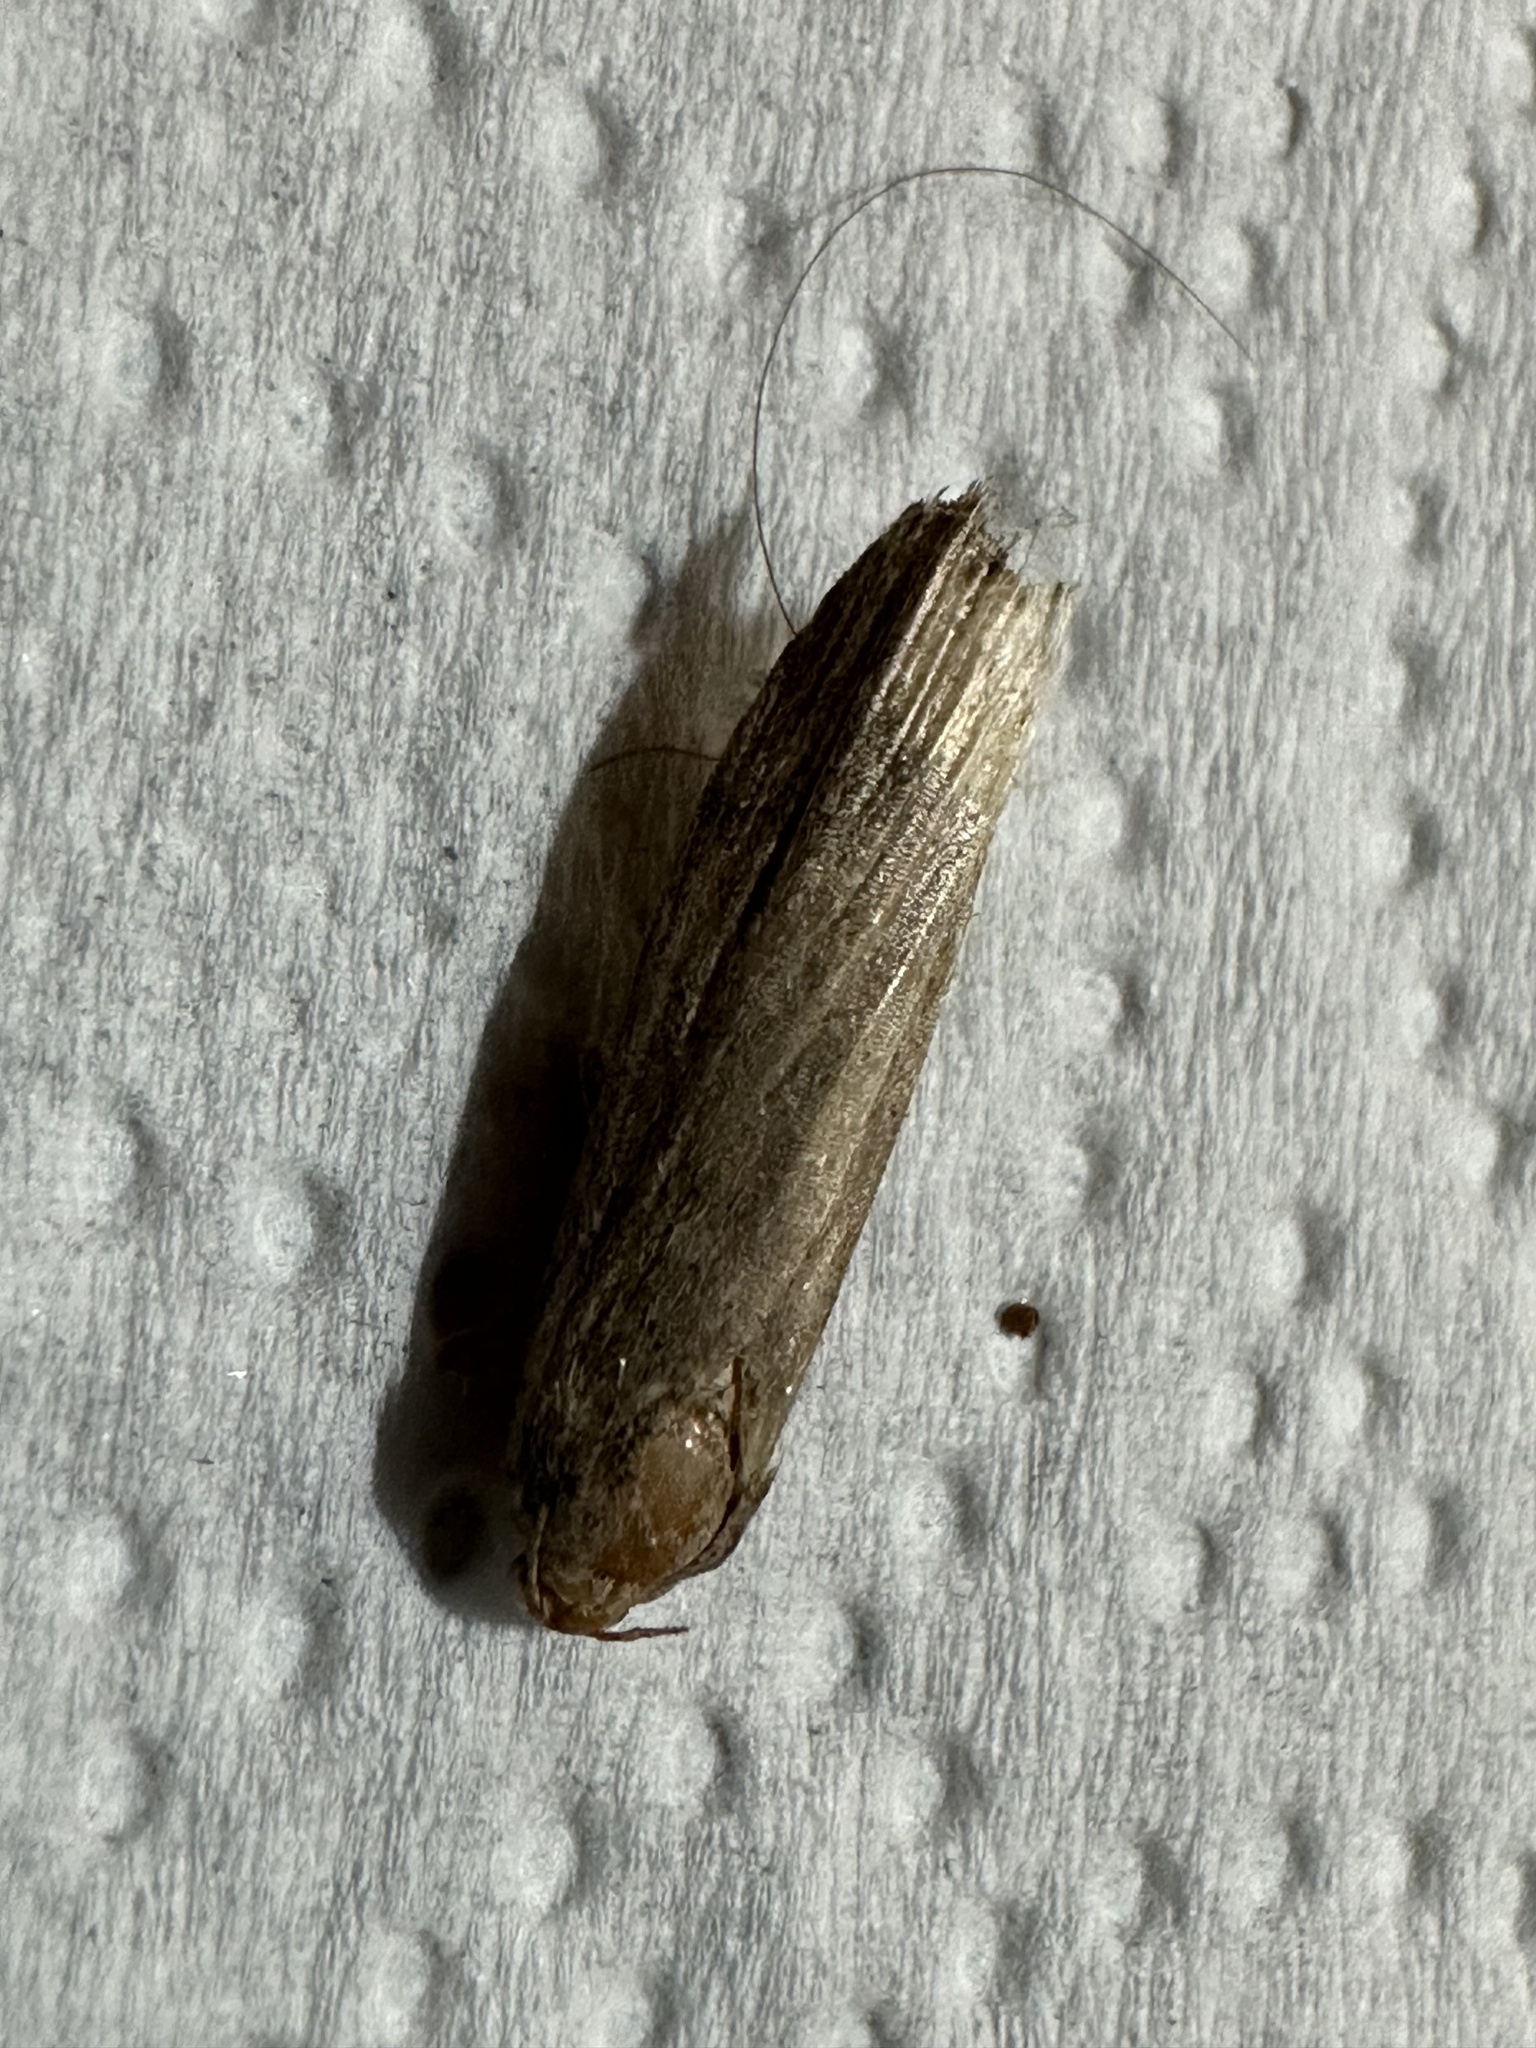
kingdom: Animalia
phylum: Arthropoda
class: Insecta
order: Lepidoptera
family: Pyralidae
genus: Lamoria
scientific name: Lamoria anella
